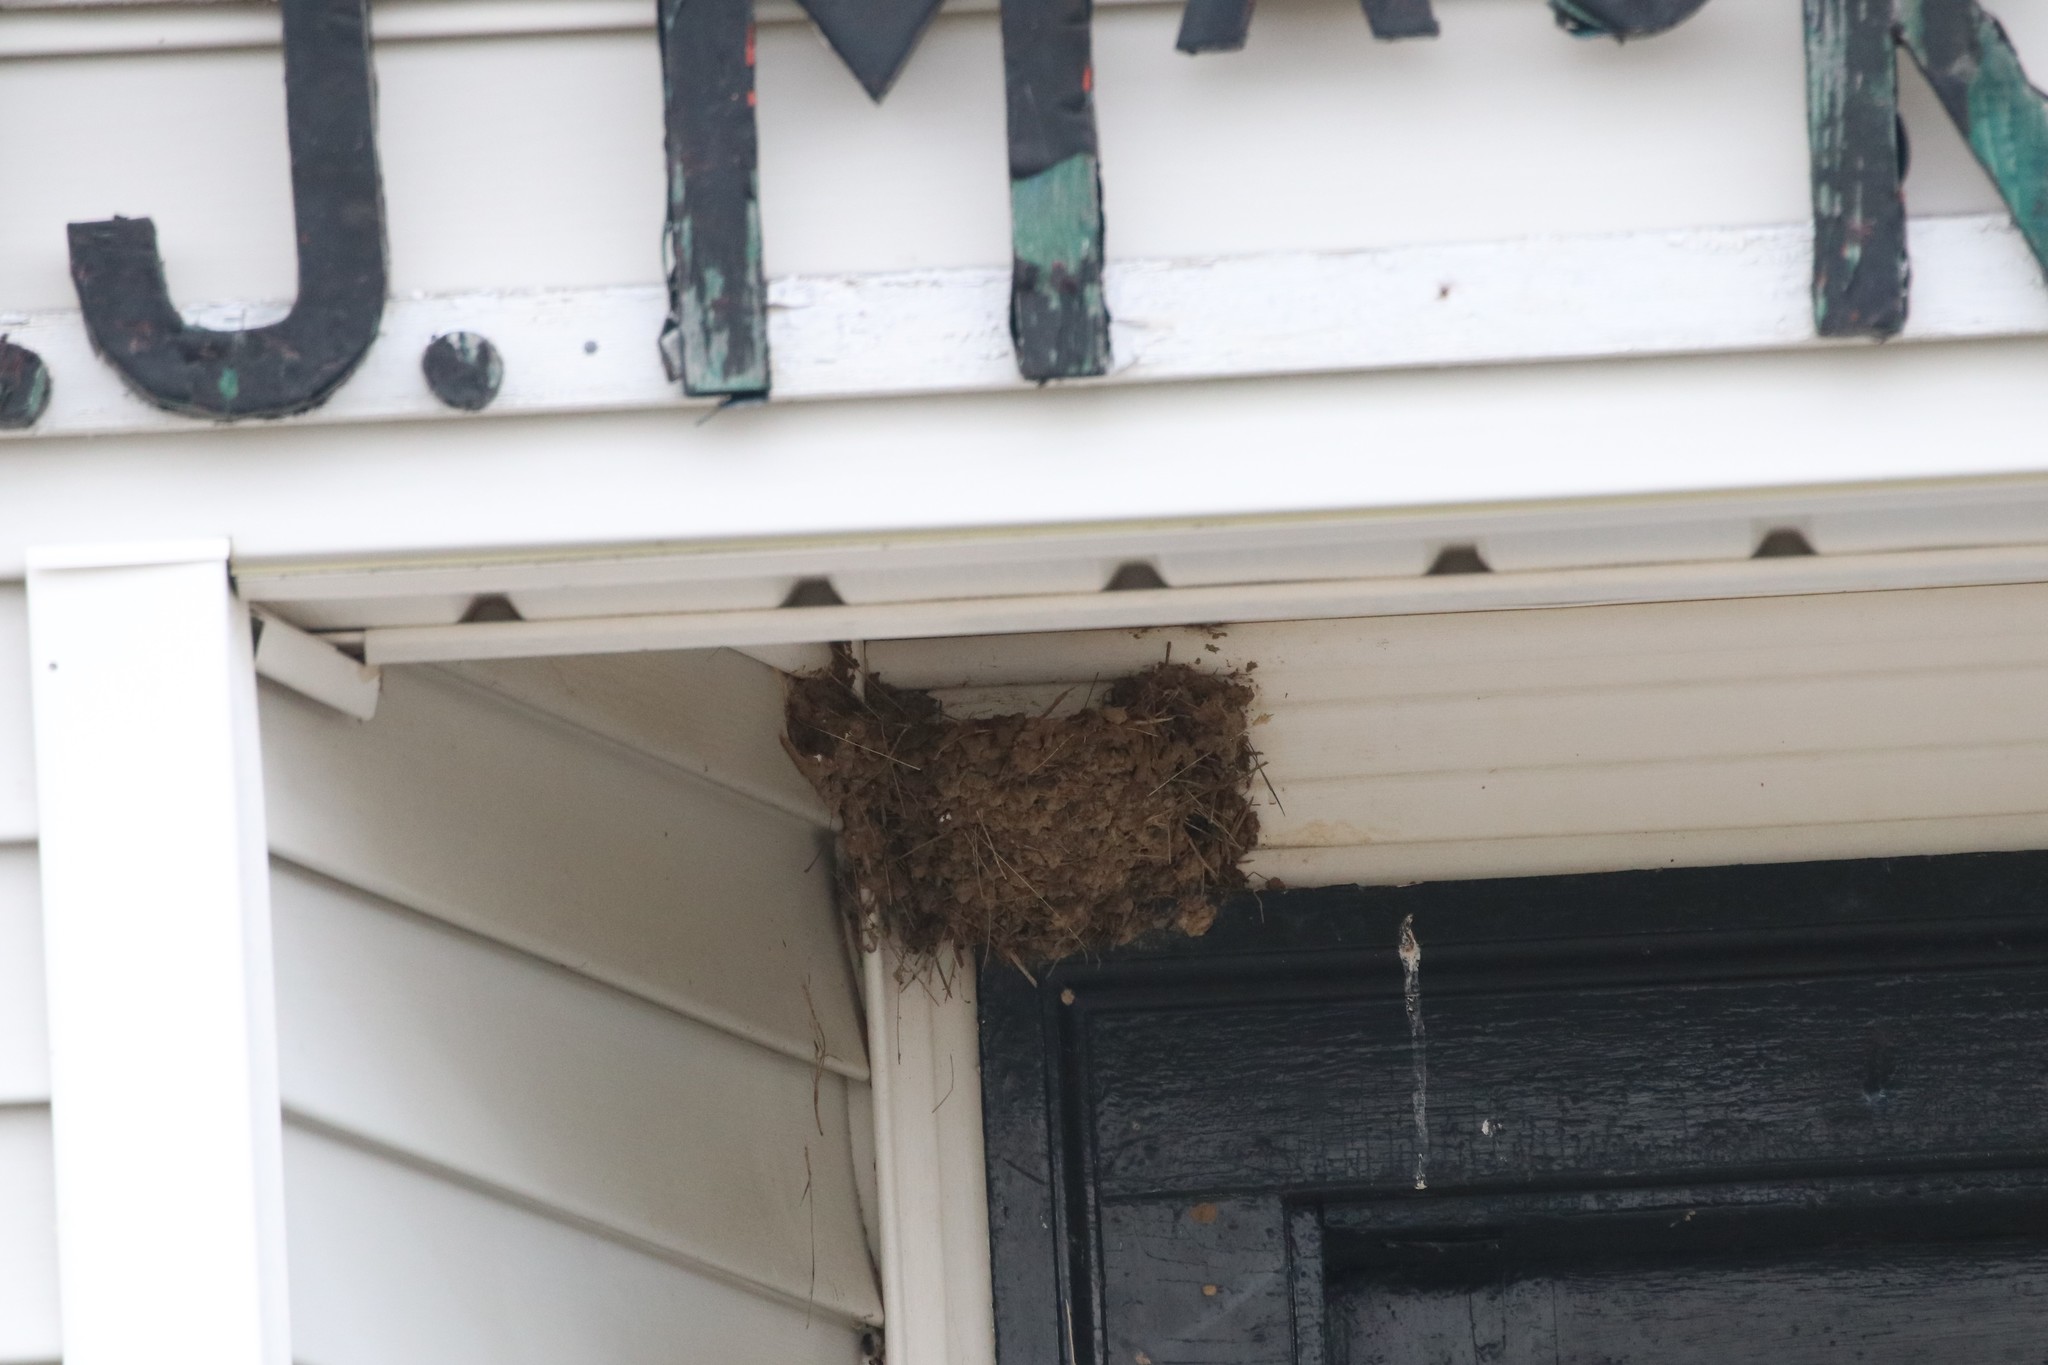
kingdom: Animalia
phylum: Chordata
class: Aves
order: Passeriformes
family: Hirundinidae
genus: Hirundo
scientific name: Hirundo rustica
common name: Barn swallow
